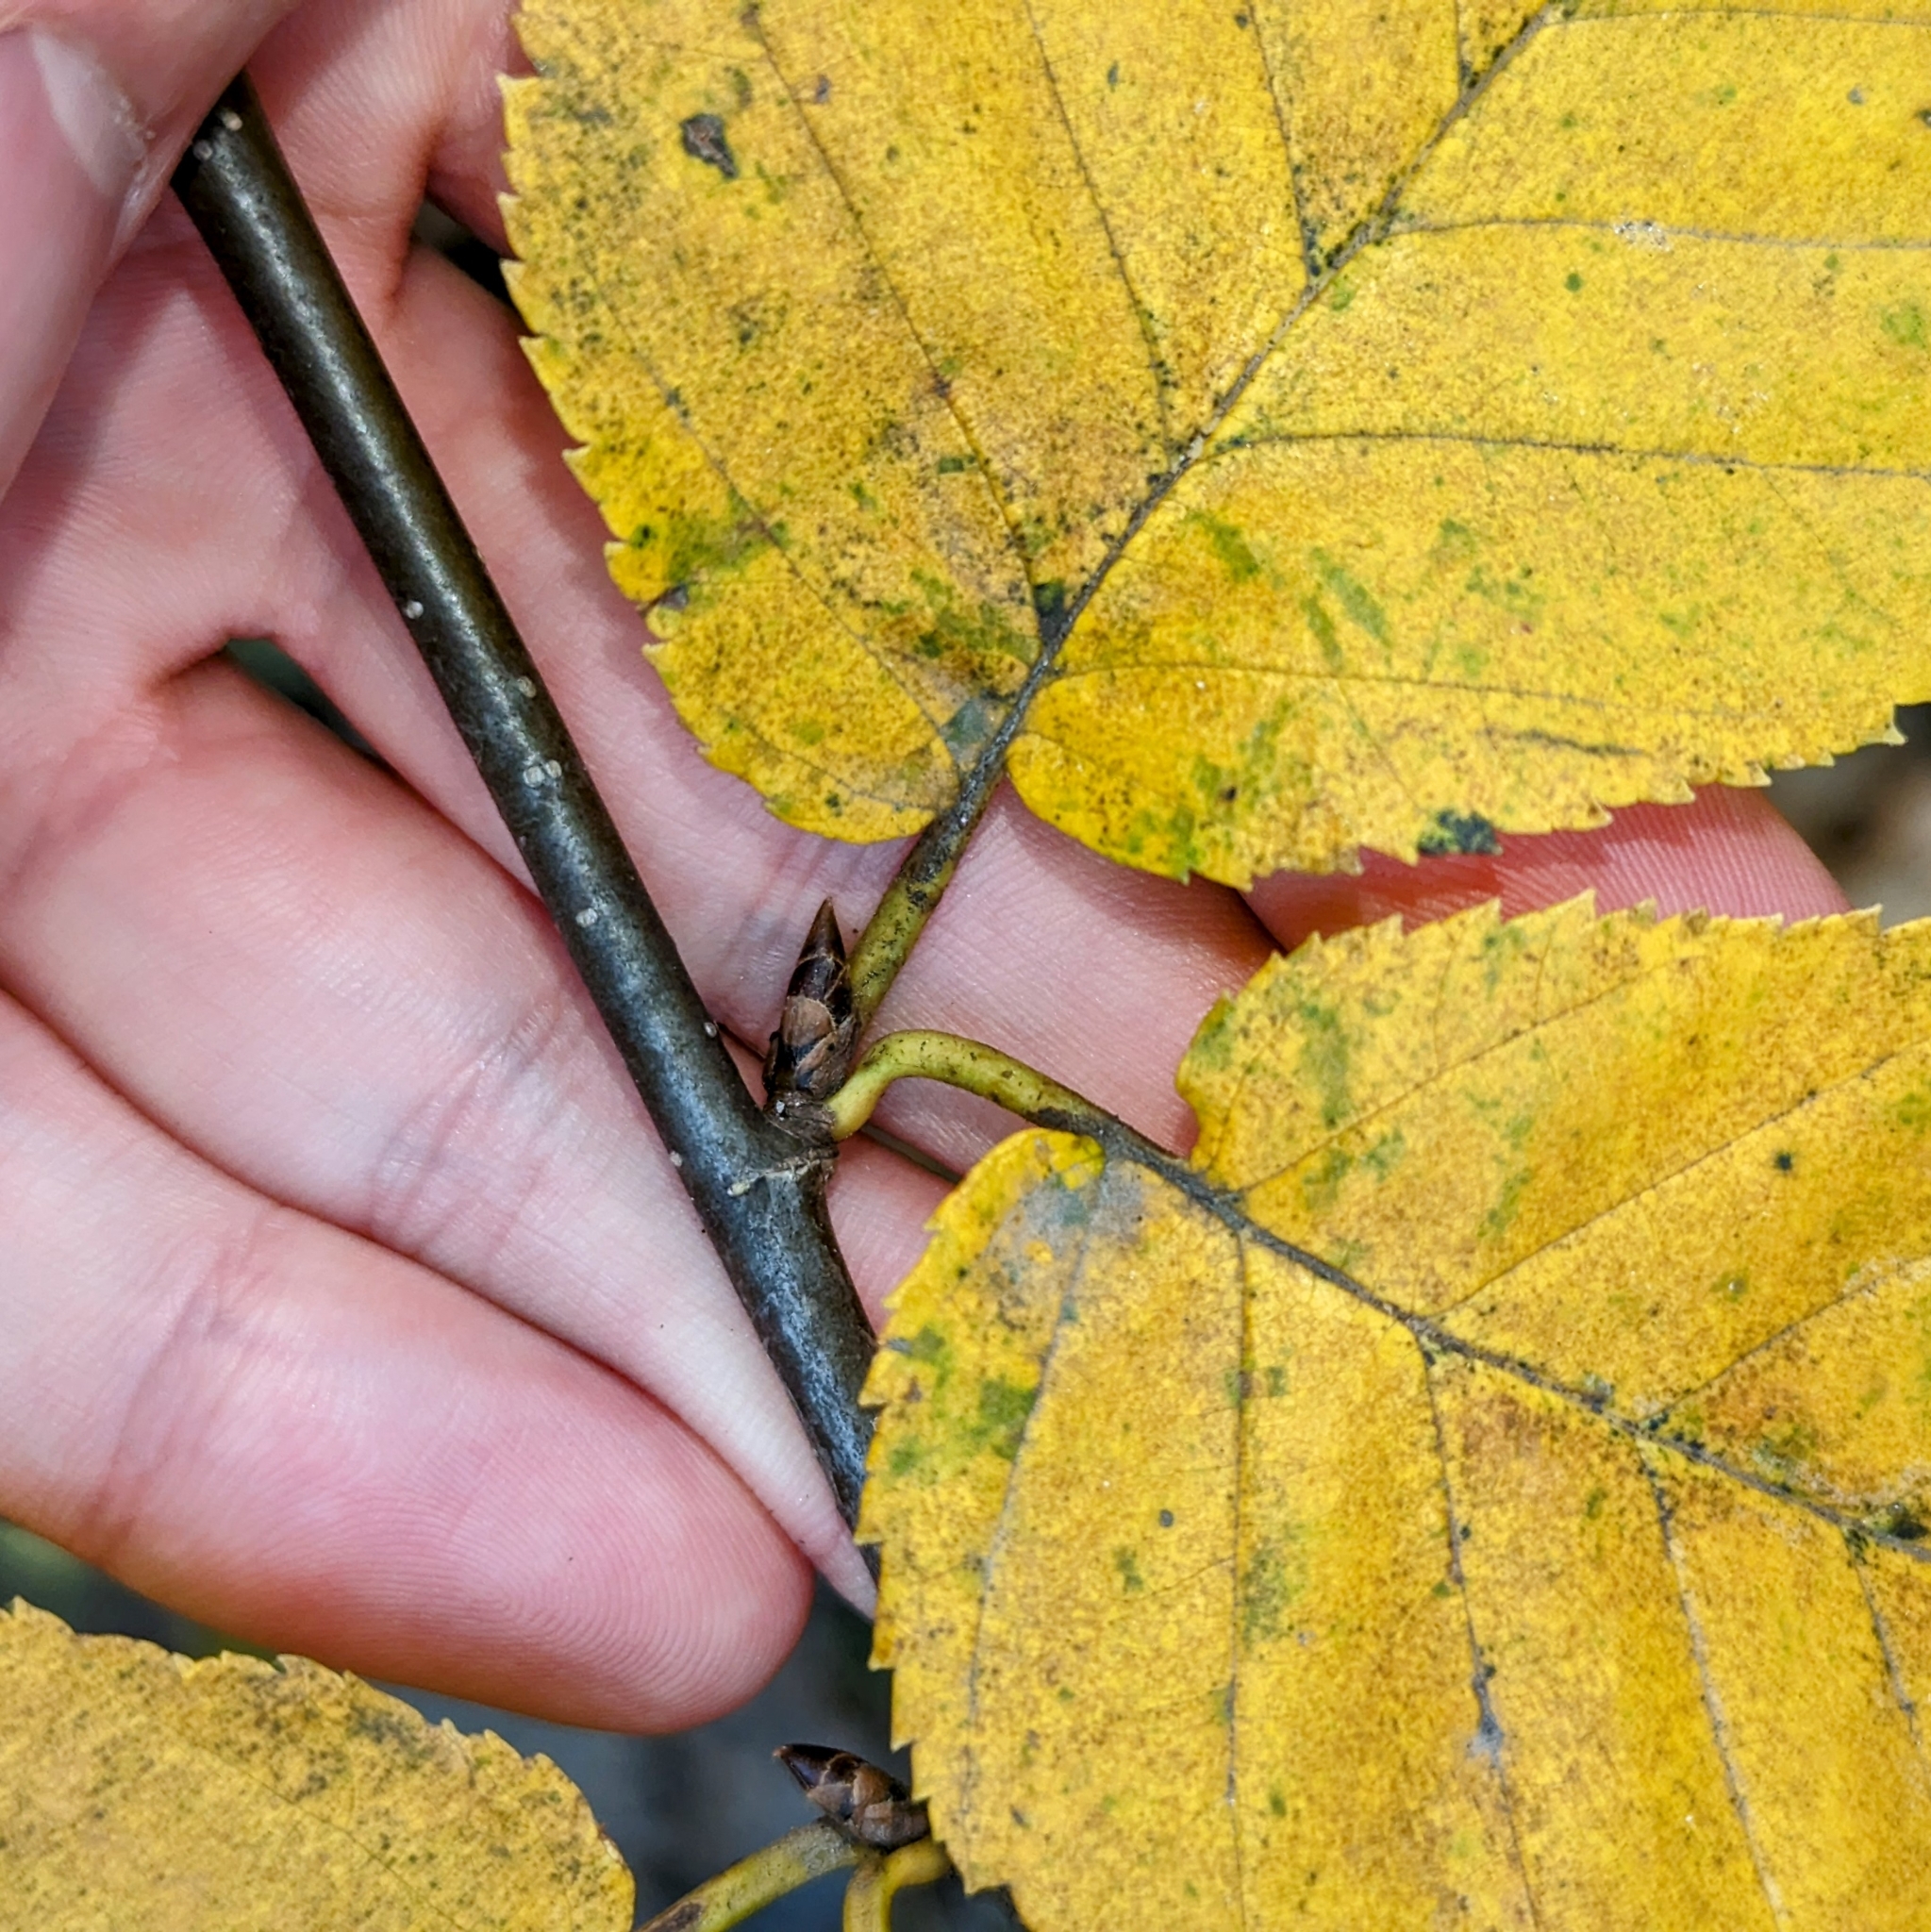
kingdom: Plantae
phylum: Tracheophyta
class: Magnoliopsida
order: Fagales
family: Betulaceae
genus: Betula
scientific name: Betula alleghaniensis
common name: Yellow birch
